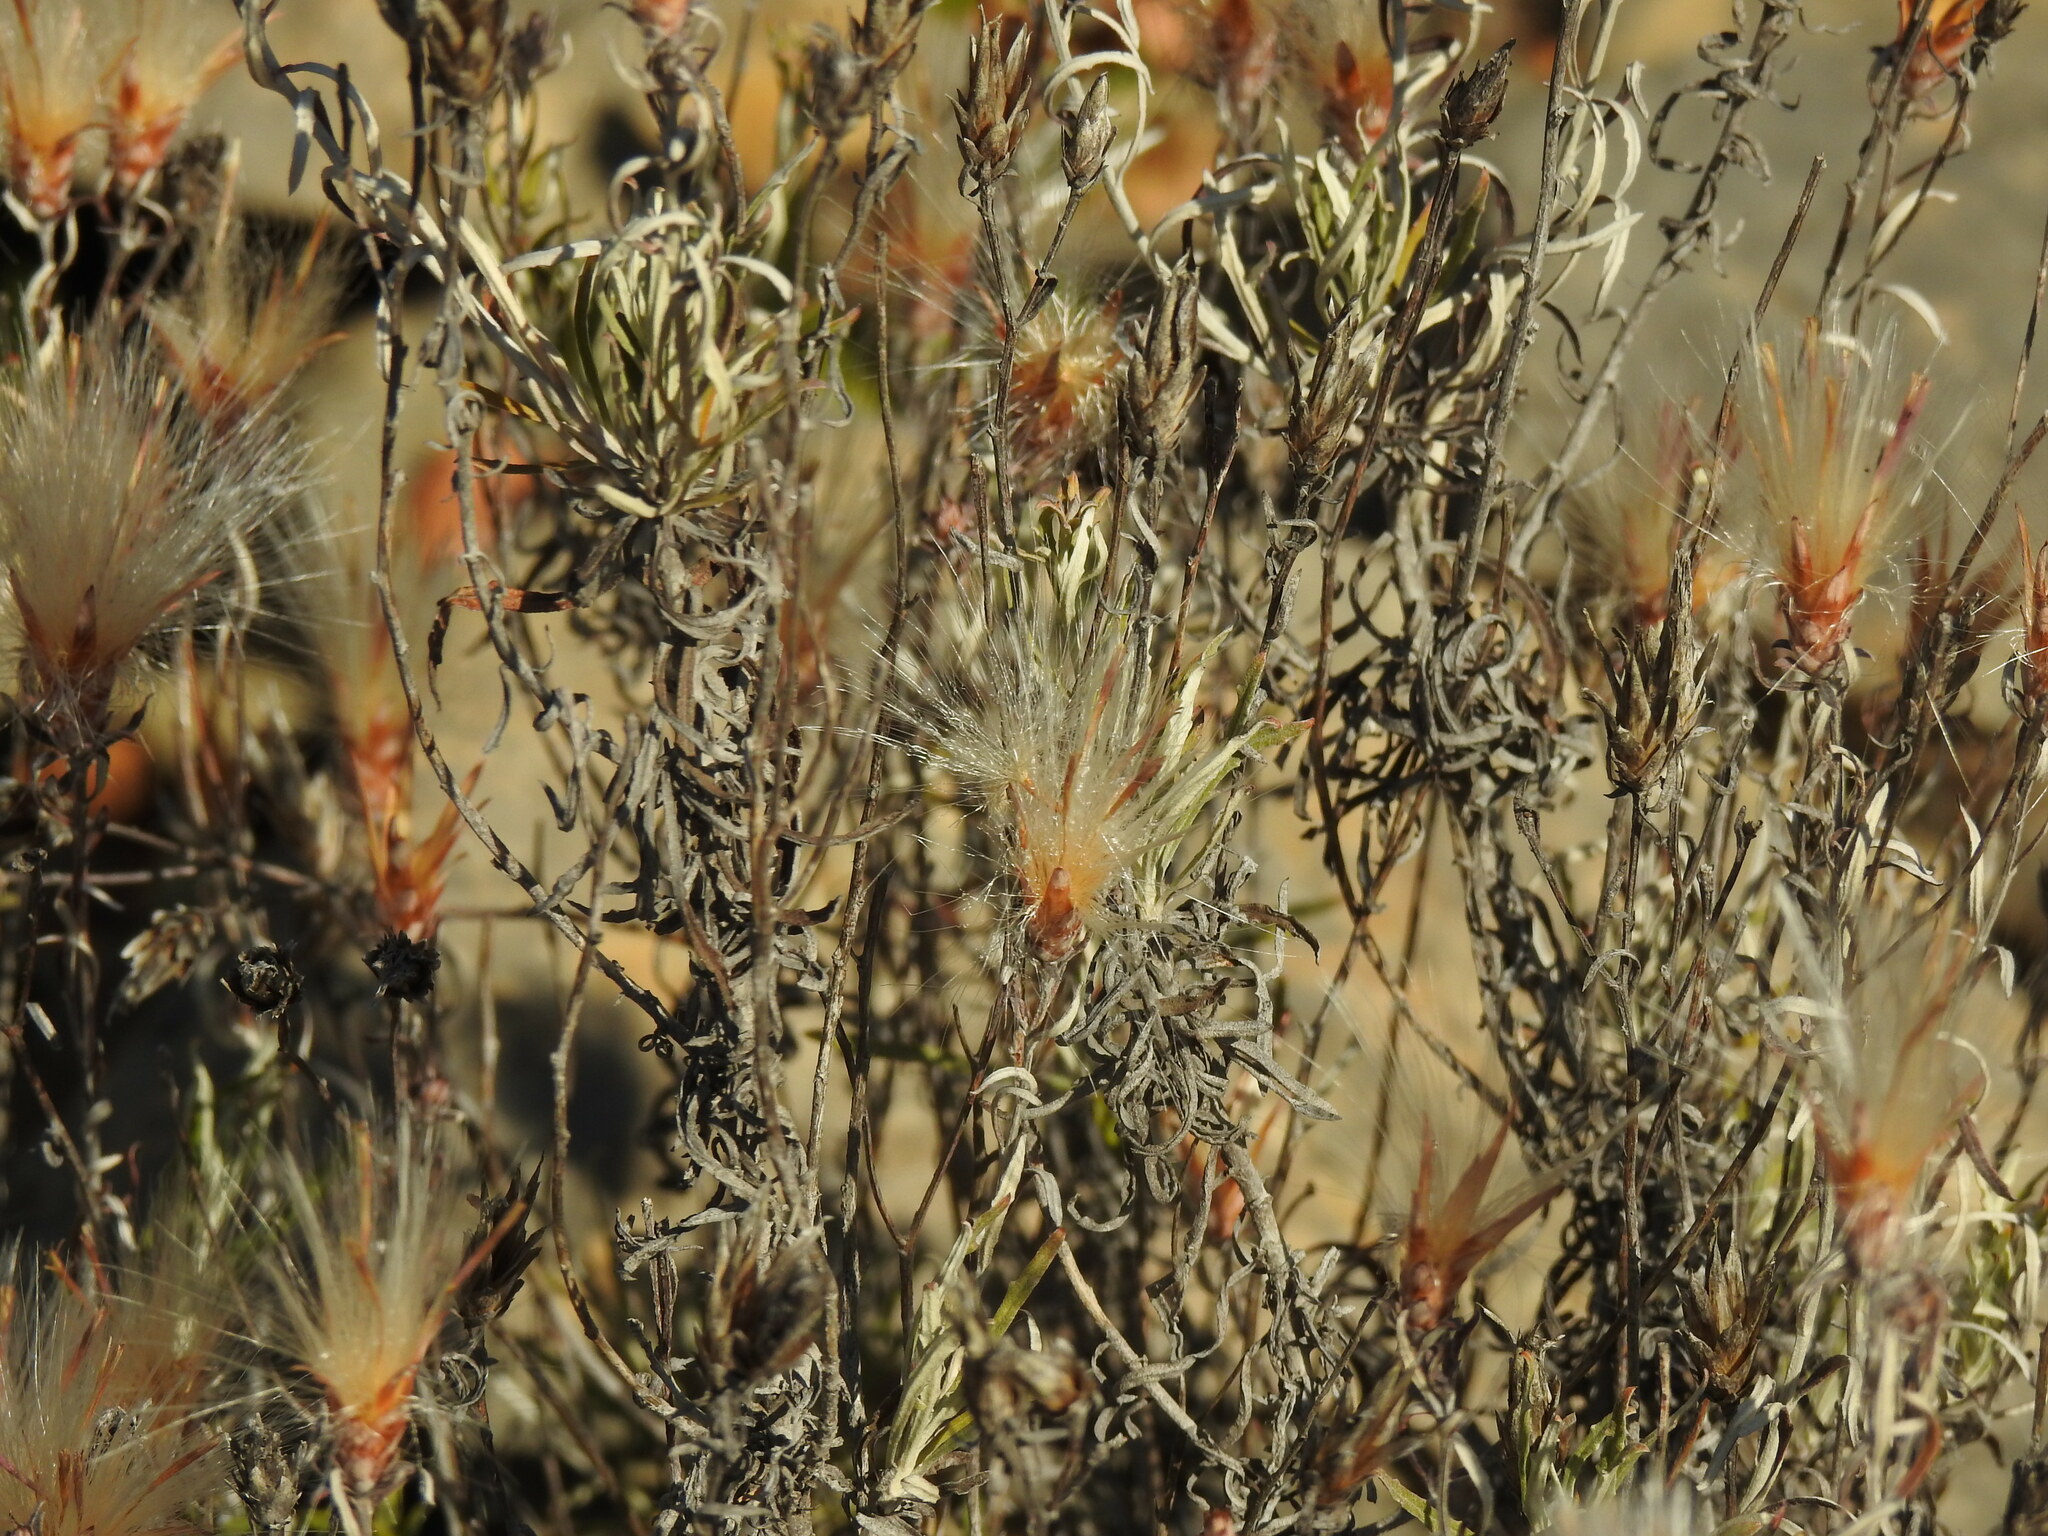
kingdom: Plantae
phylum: Tracheophyta
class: Magnoliopsida
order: Asterales
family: Asteraceae
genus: Staehelina
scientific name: Staehelina dubia
